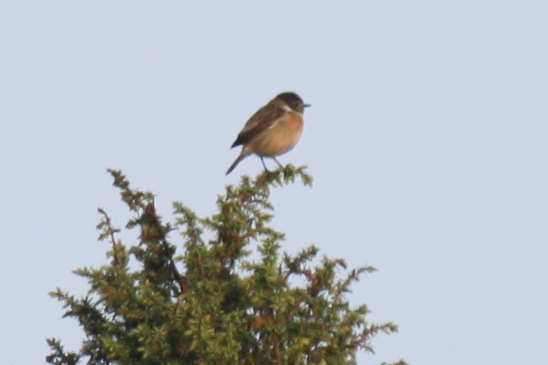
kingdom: Animalia
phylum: Chordata
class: Aves
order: Passeriformes
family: Muscicapidae
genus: Saxicola
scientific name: Saxicola rubicola
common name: European stonechat
